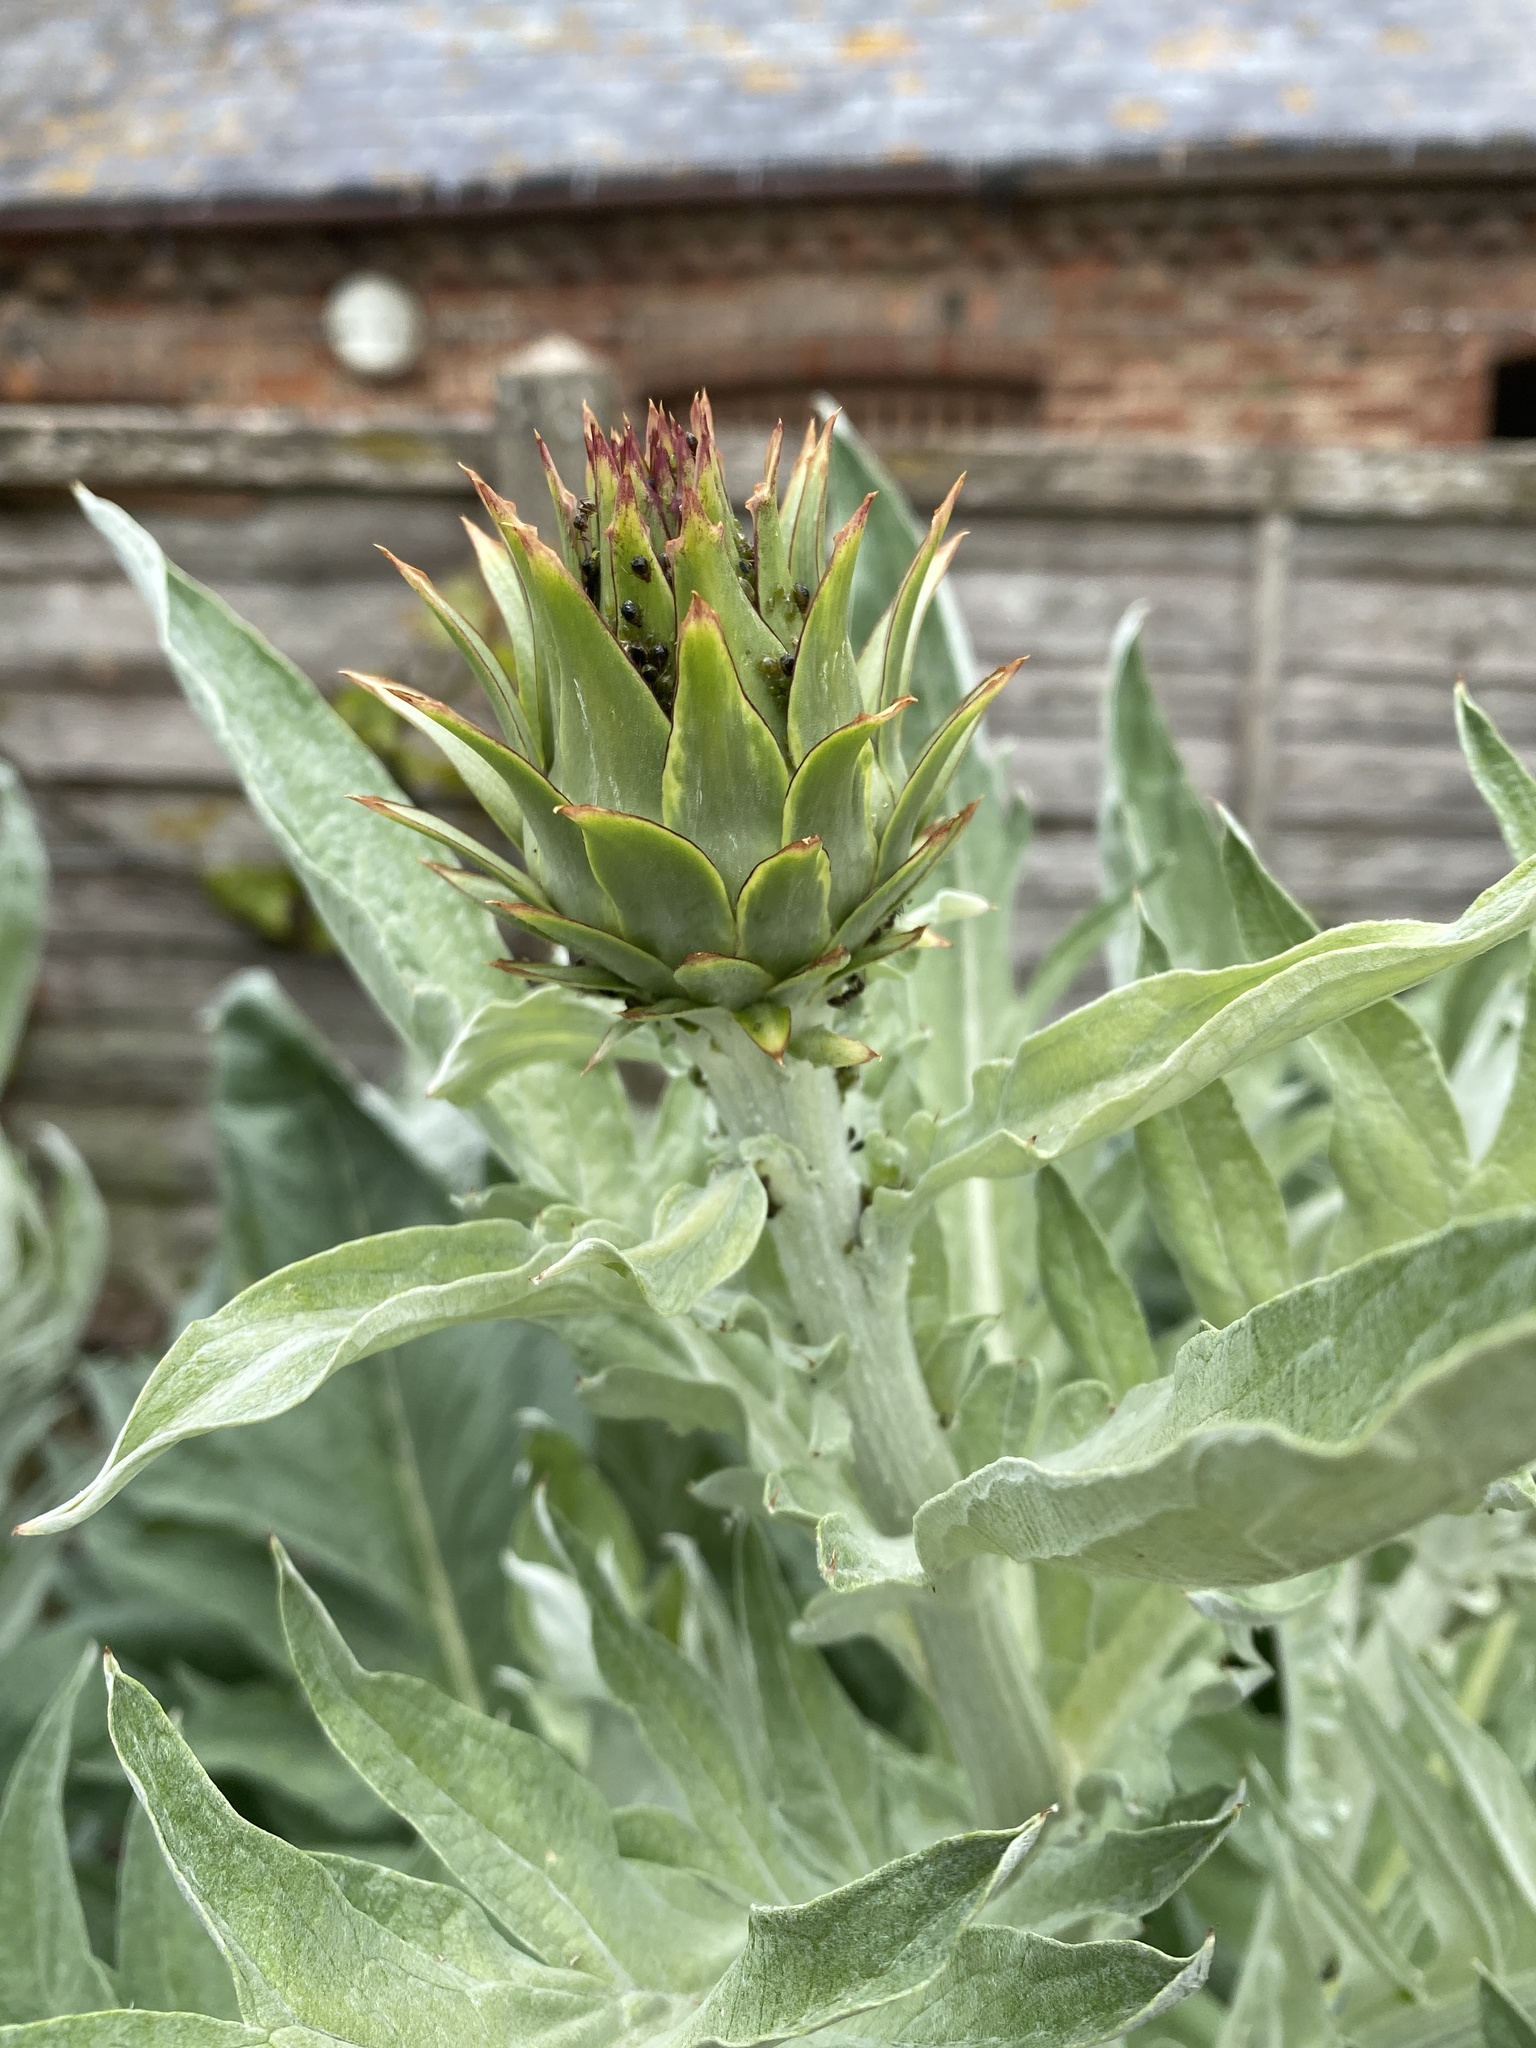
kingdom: Plantae
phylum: Tracheophyta
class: Magnoliopsida
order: Asterales
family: Asteraceae
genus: Cynara
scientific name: Cynara cardunculus
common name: Globe artichoke
